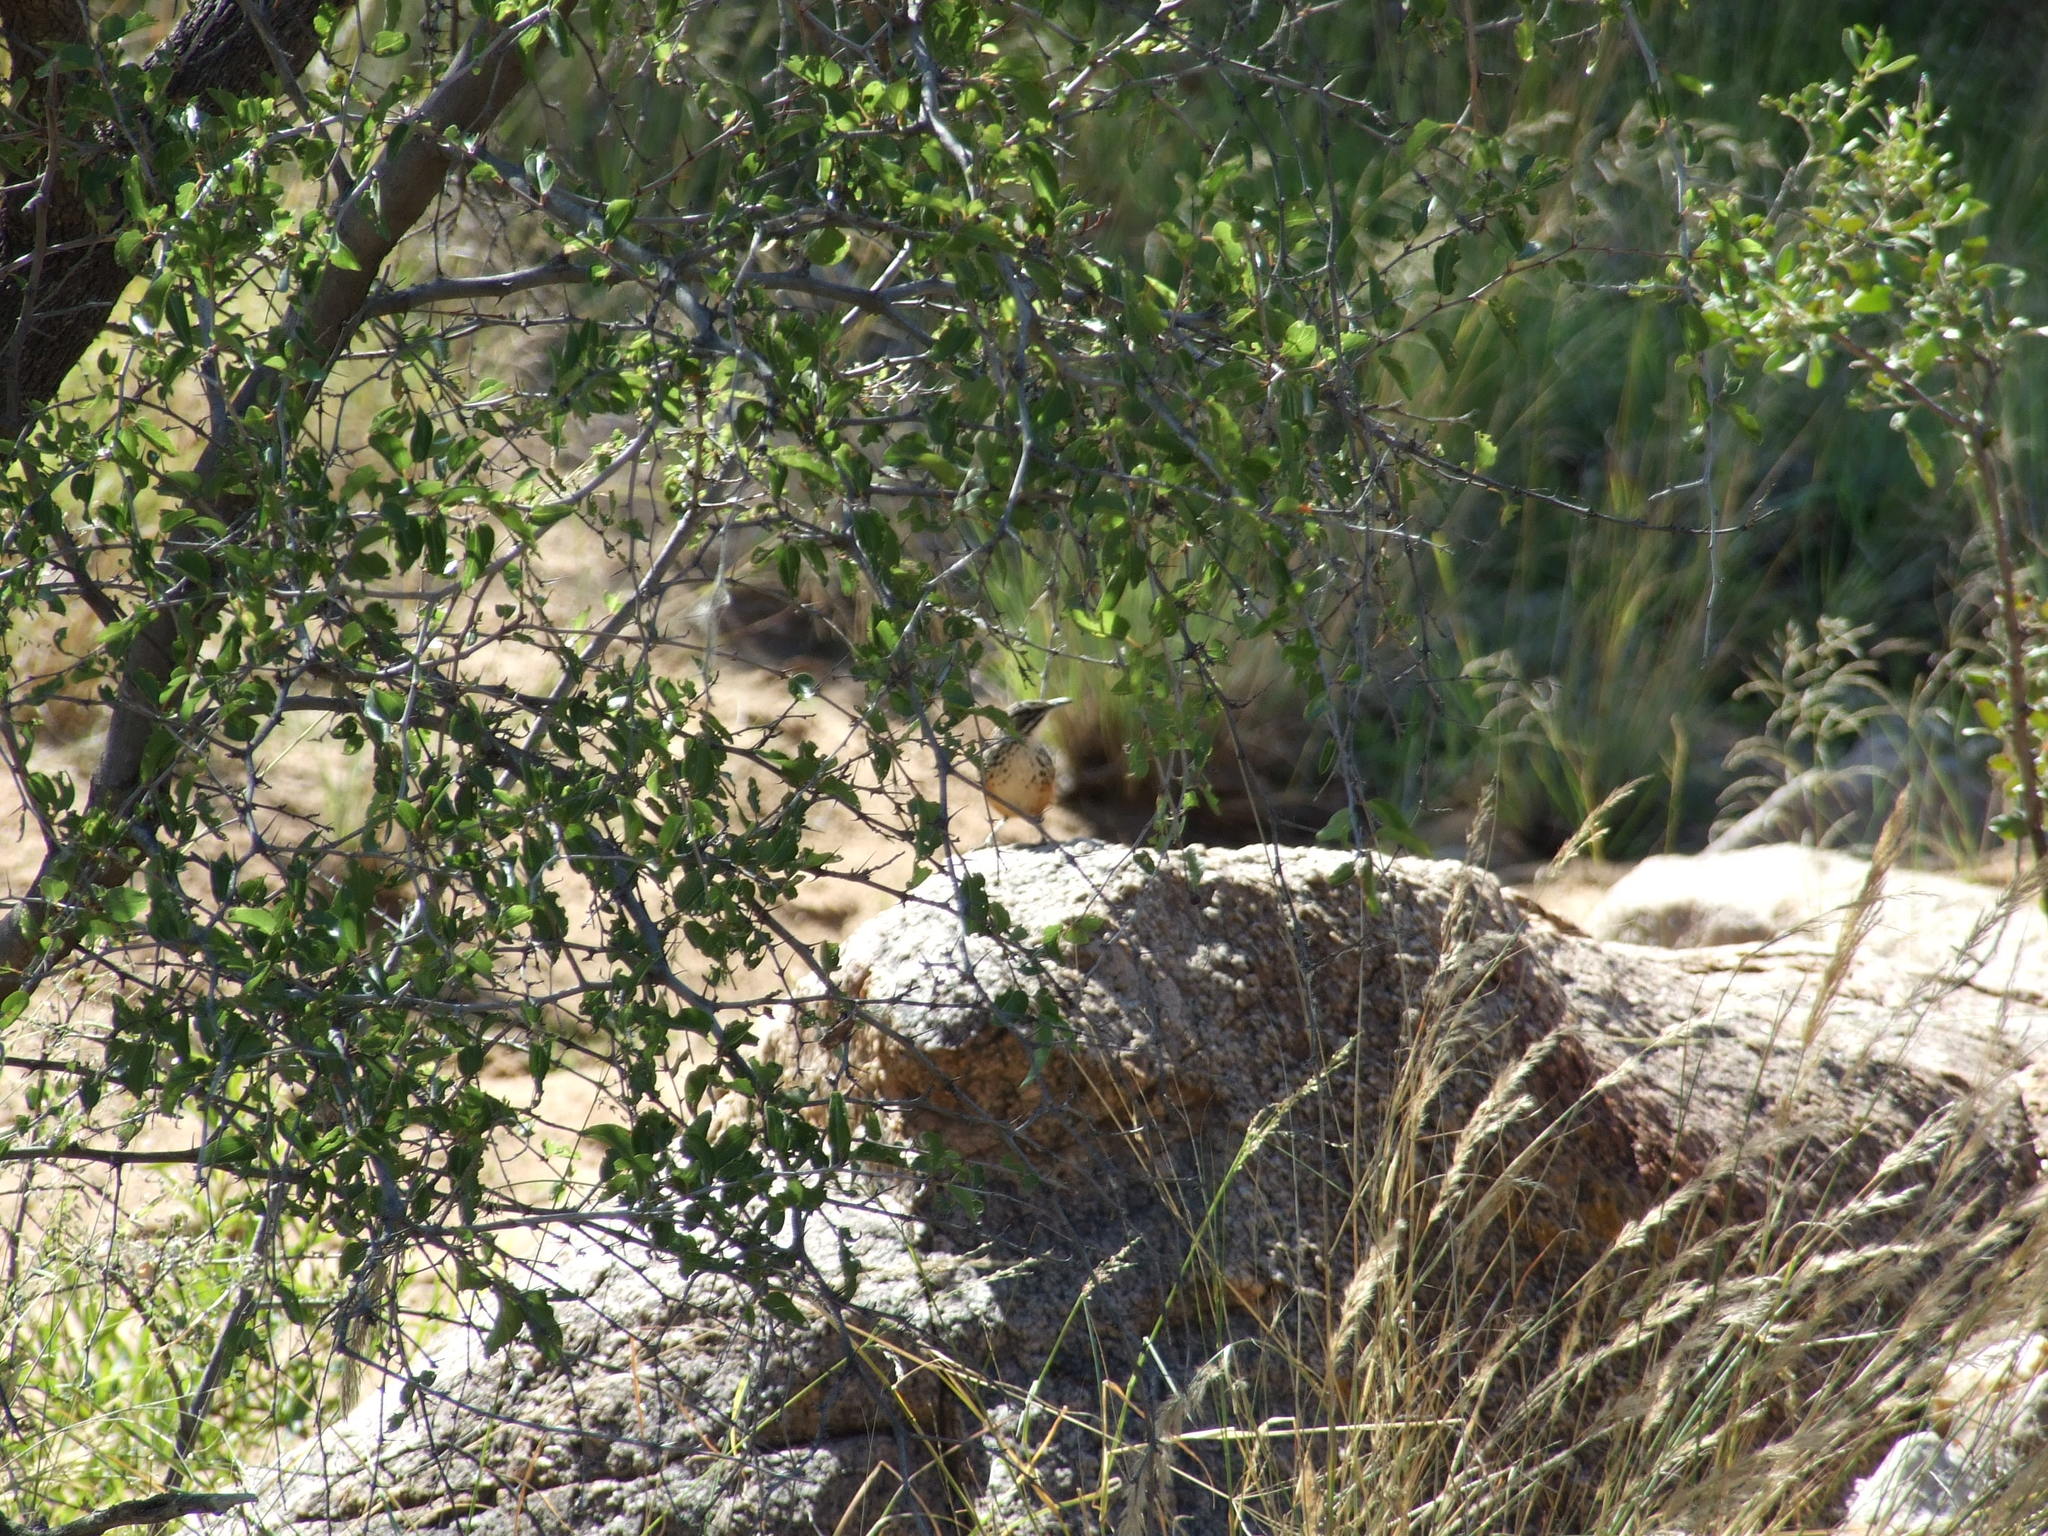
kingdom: Animalia
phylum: Chordata
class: Aves
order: Passeriformes
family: Macrosphenidae
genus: Achaetops
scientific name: Achaetops pycnopygius
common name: Rockrunner
